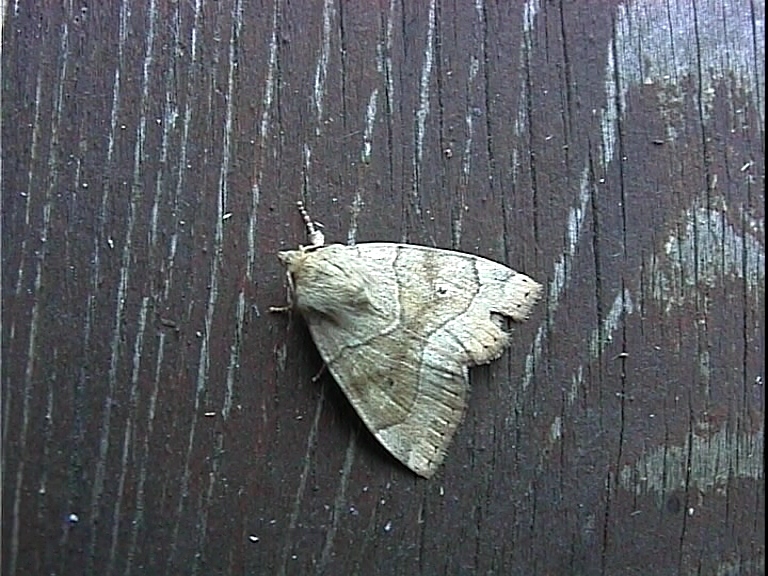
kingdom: Animalia
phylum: Arthropoda
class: Insecta
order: Lepidoptera
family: Noctuidae
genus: Cosmia
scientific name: Cosmia trapezina
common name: Dun-bar
